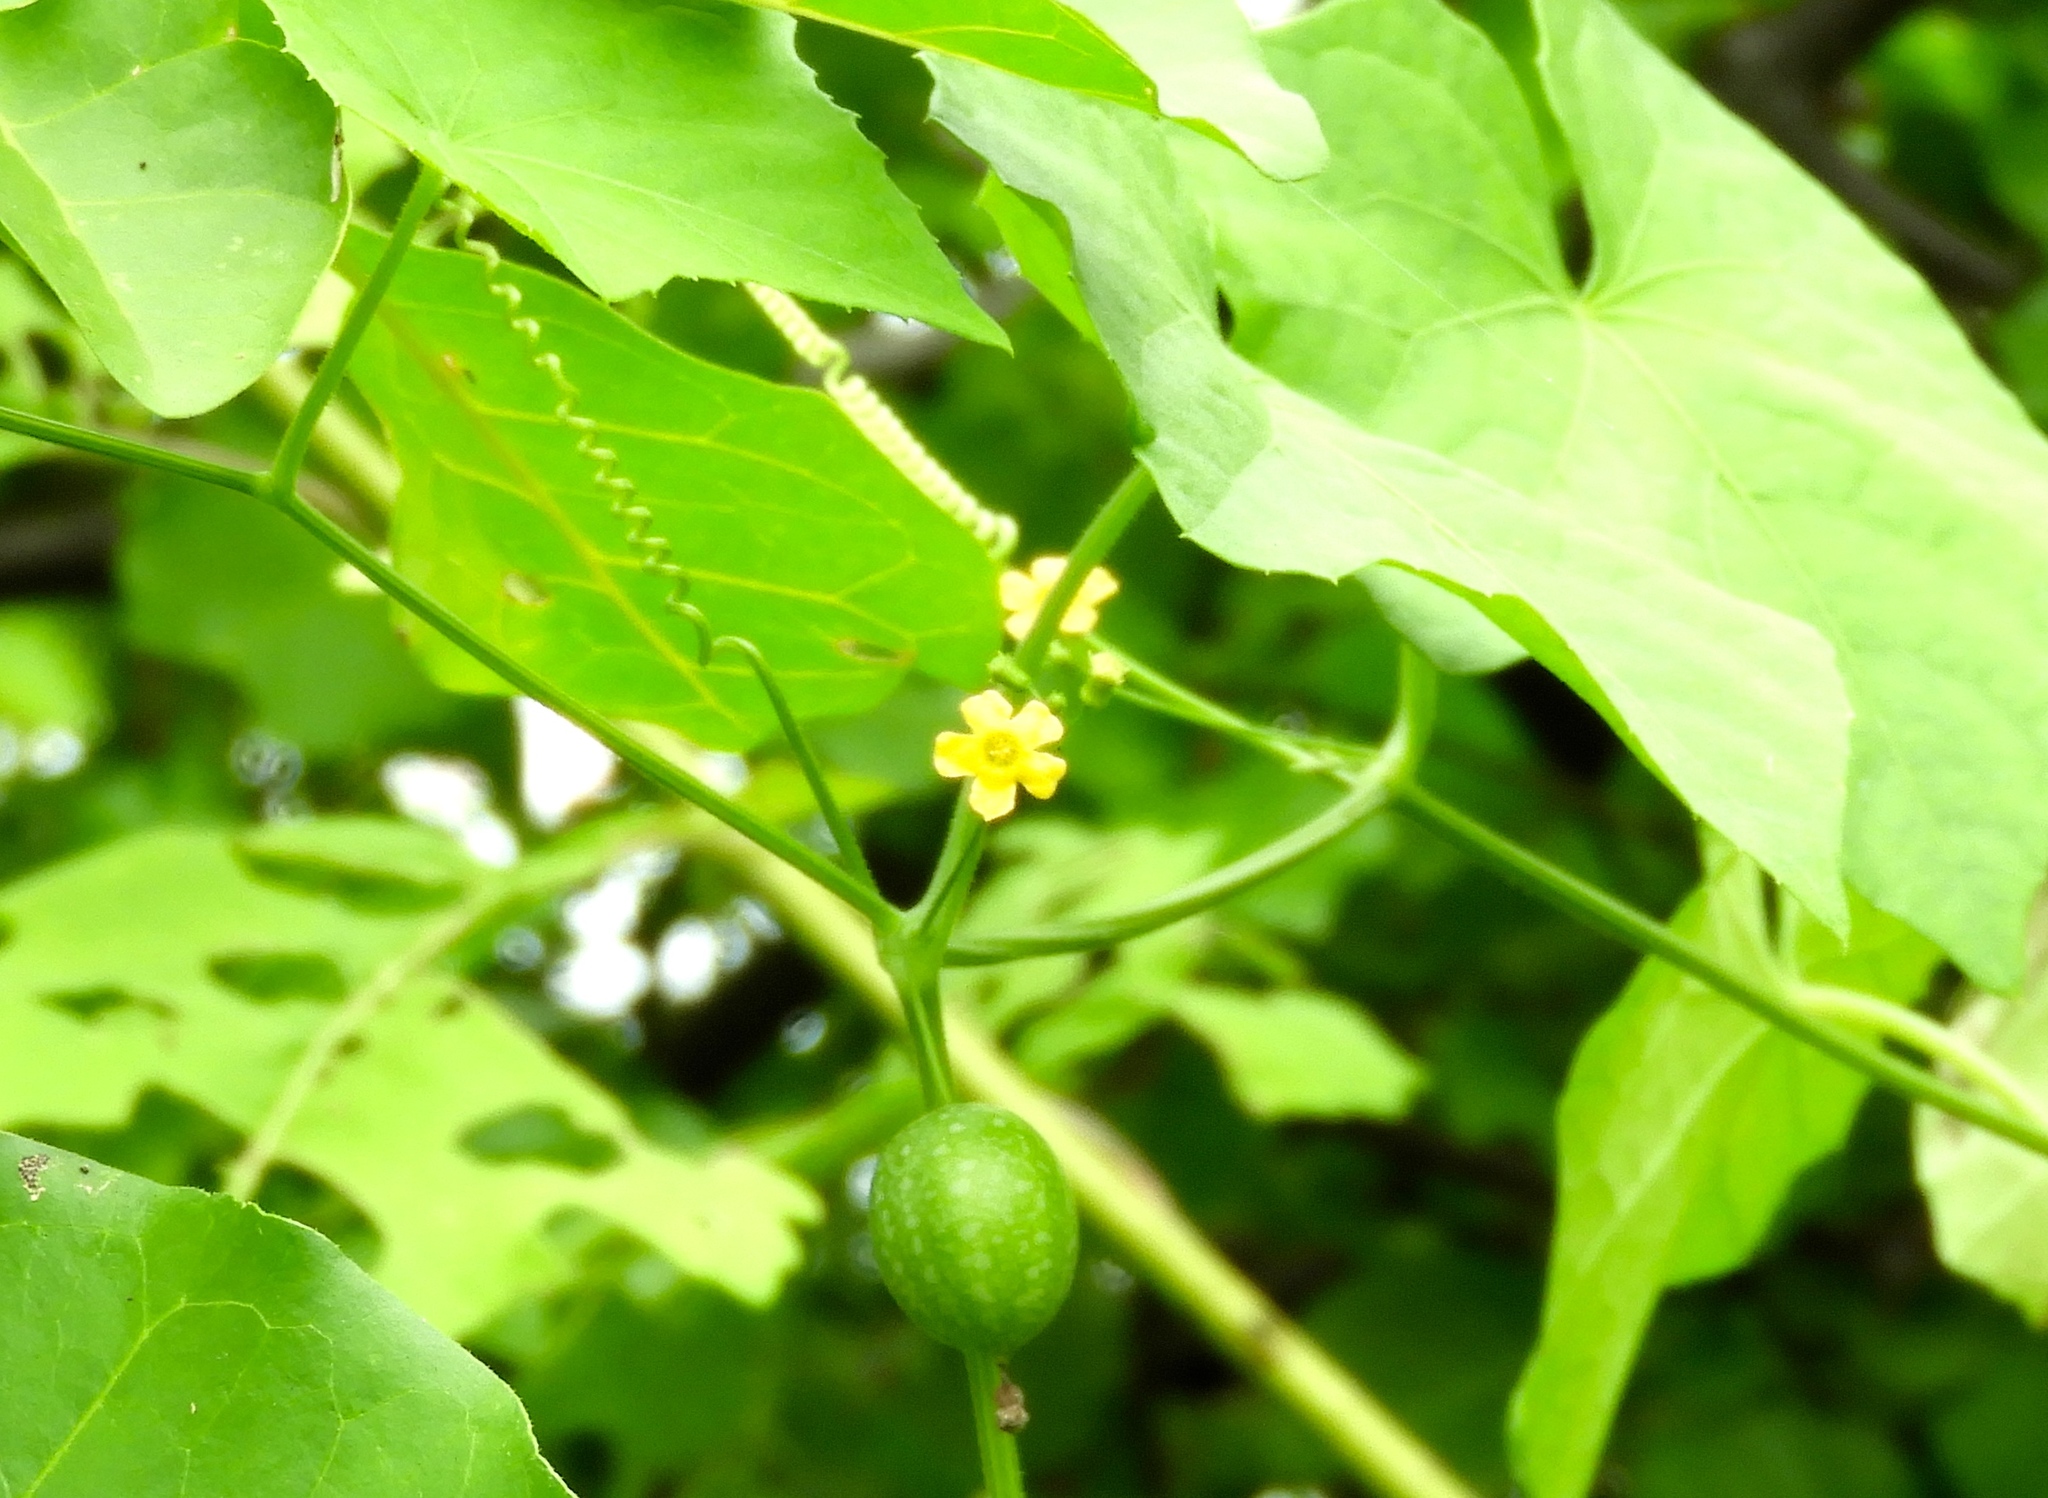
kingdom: Plantae
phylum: Tracheophyta
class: Magnoliopsida
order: Cucurbitales
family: Cucurbitaceae
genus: Melothria
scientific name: Melothria pendula
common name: Creeping-cucumber
